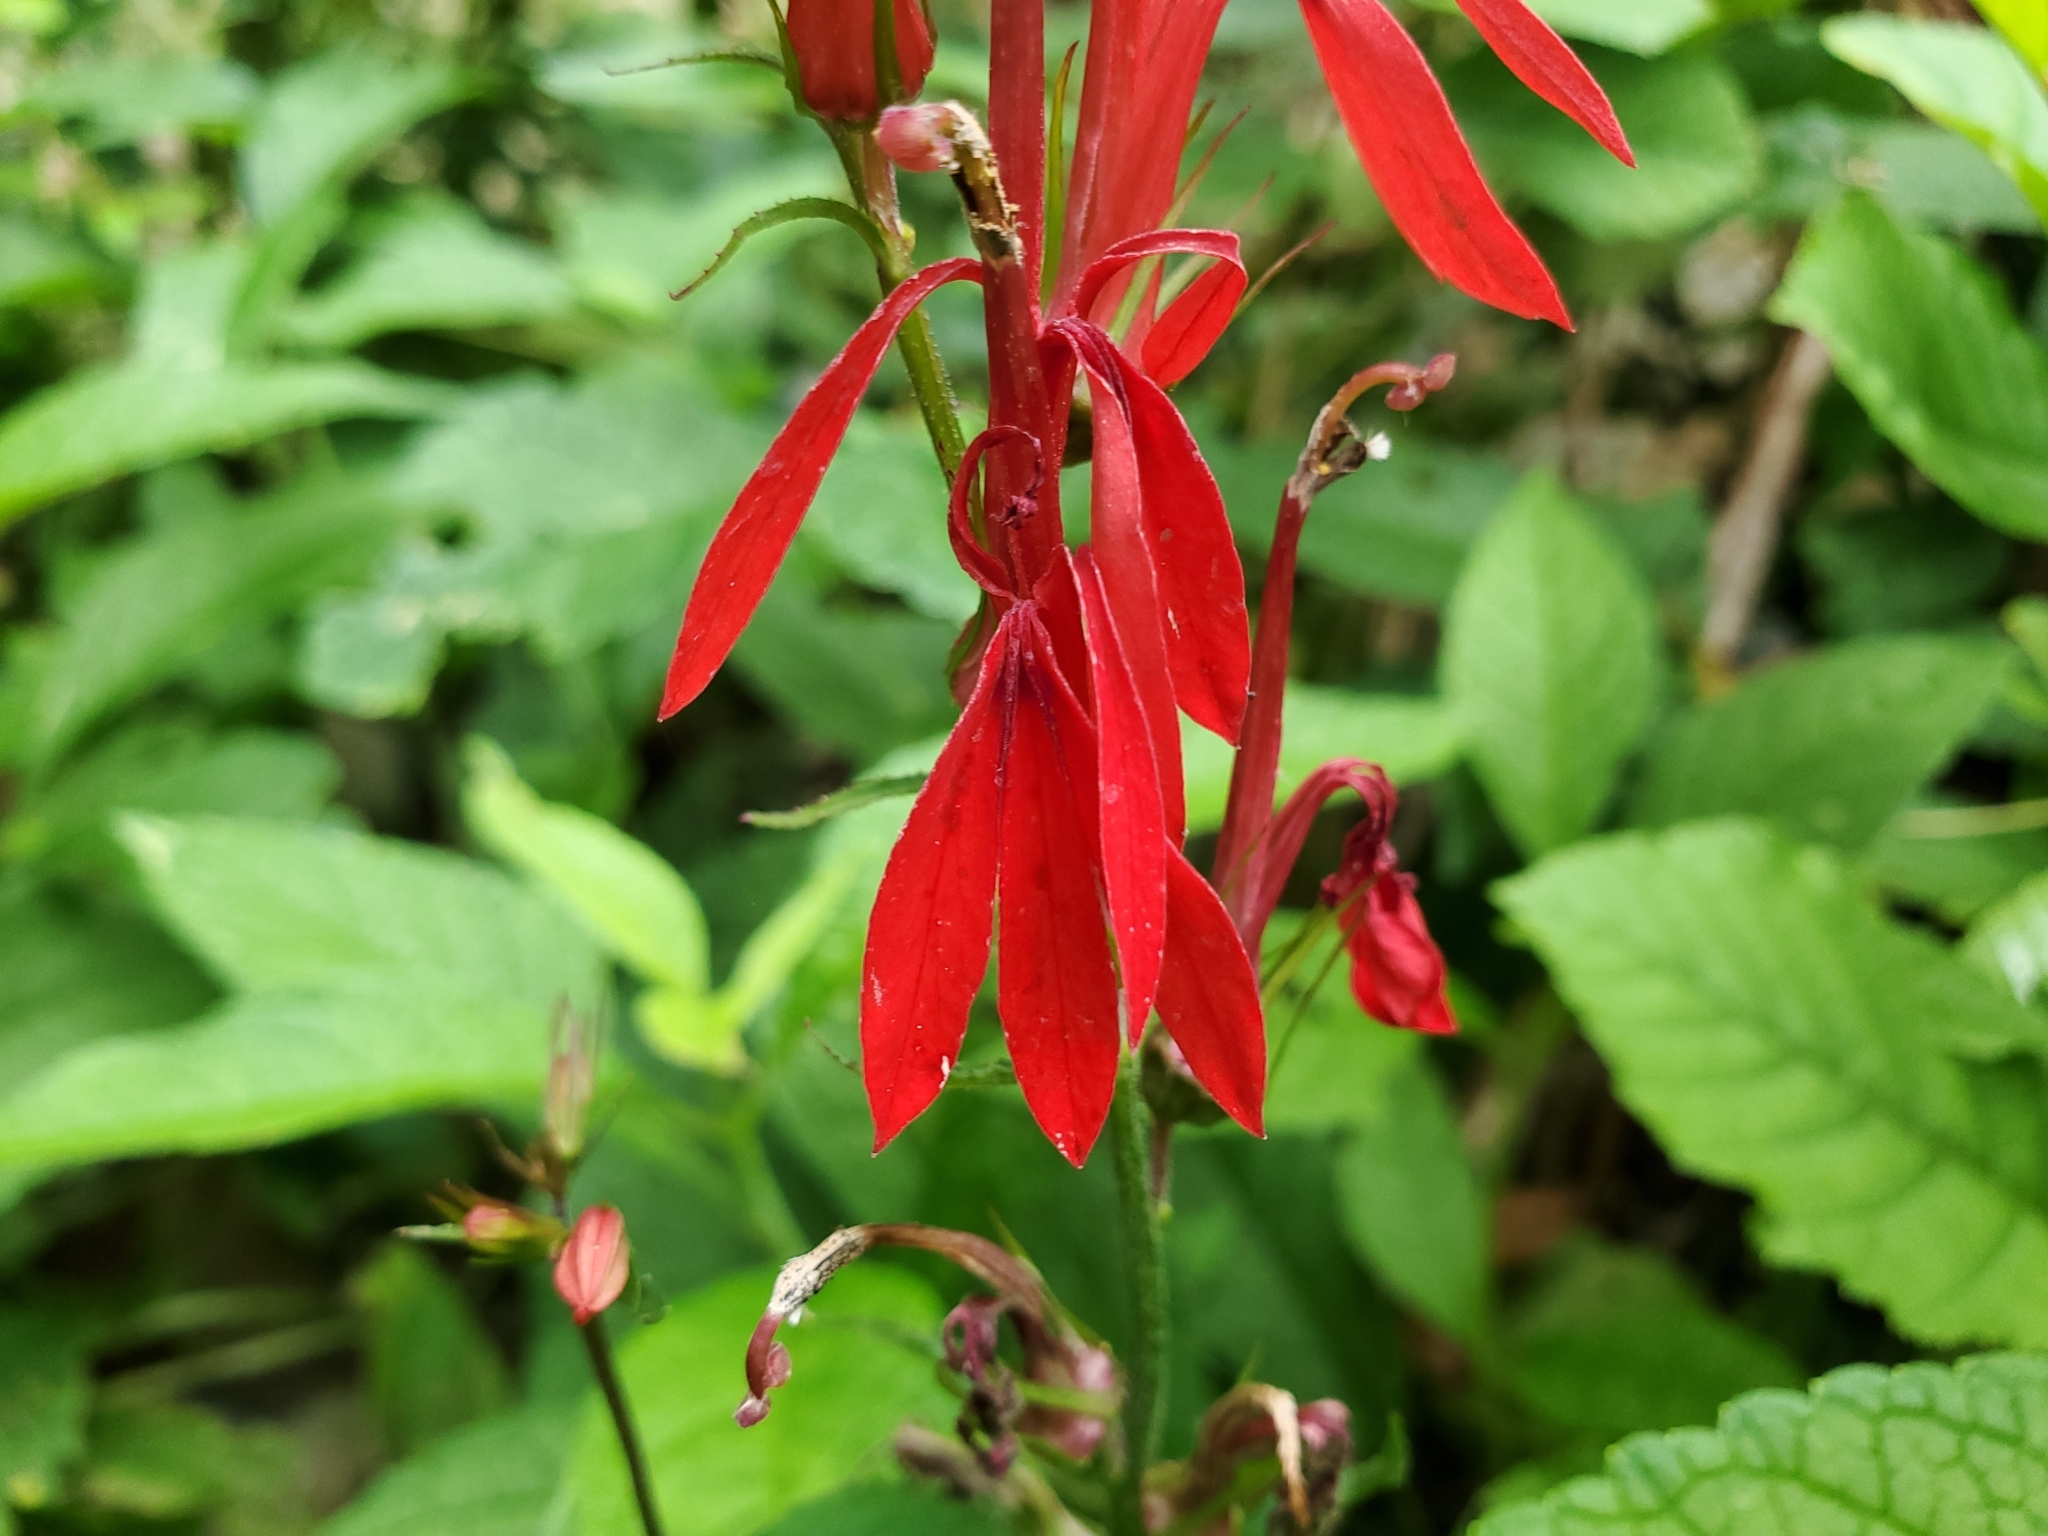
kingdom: Plantae
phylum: Tracheophyta
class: Magnoliopsida
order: Asterales
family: Campanulaceae
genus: Lobelia
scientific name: Lobelia cardinalis
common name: Cardinal flower
